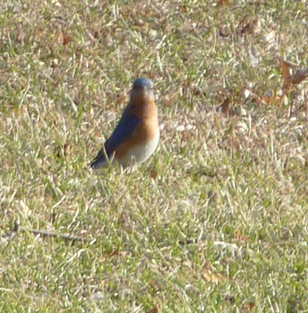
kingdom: Animalia
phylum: Chordata
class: Aves
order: Passeriformes
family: Turdidae
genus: Sialia
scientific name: Sialia sialis
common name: Eastern bluebird
